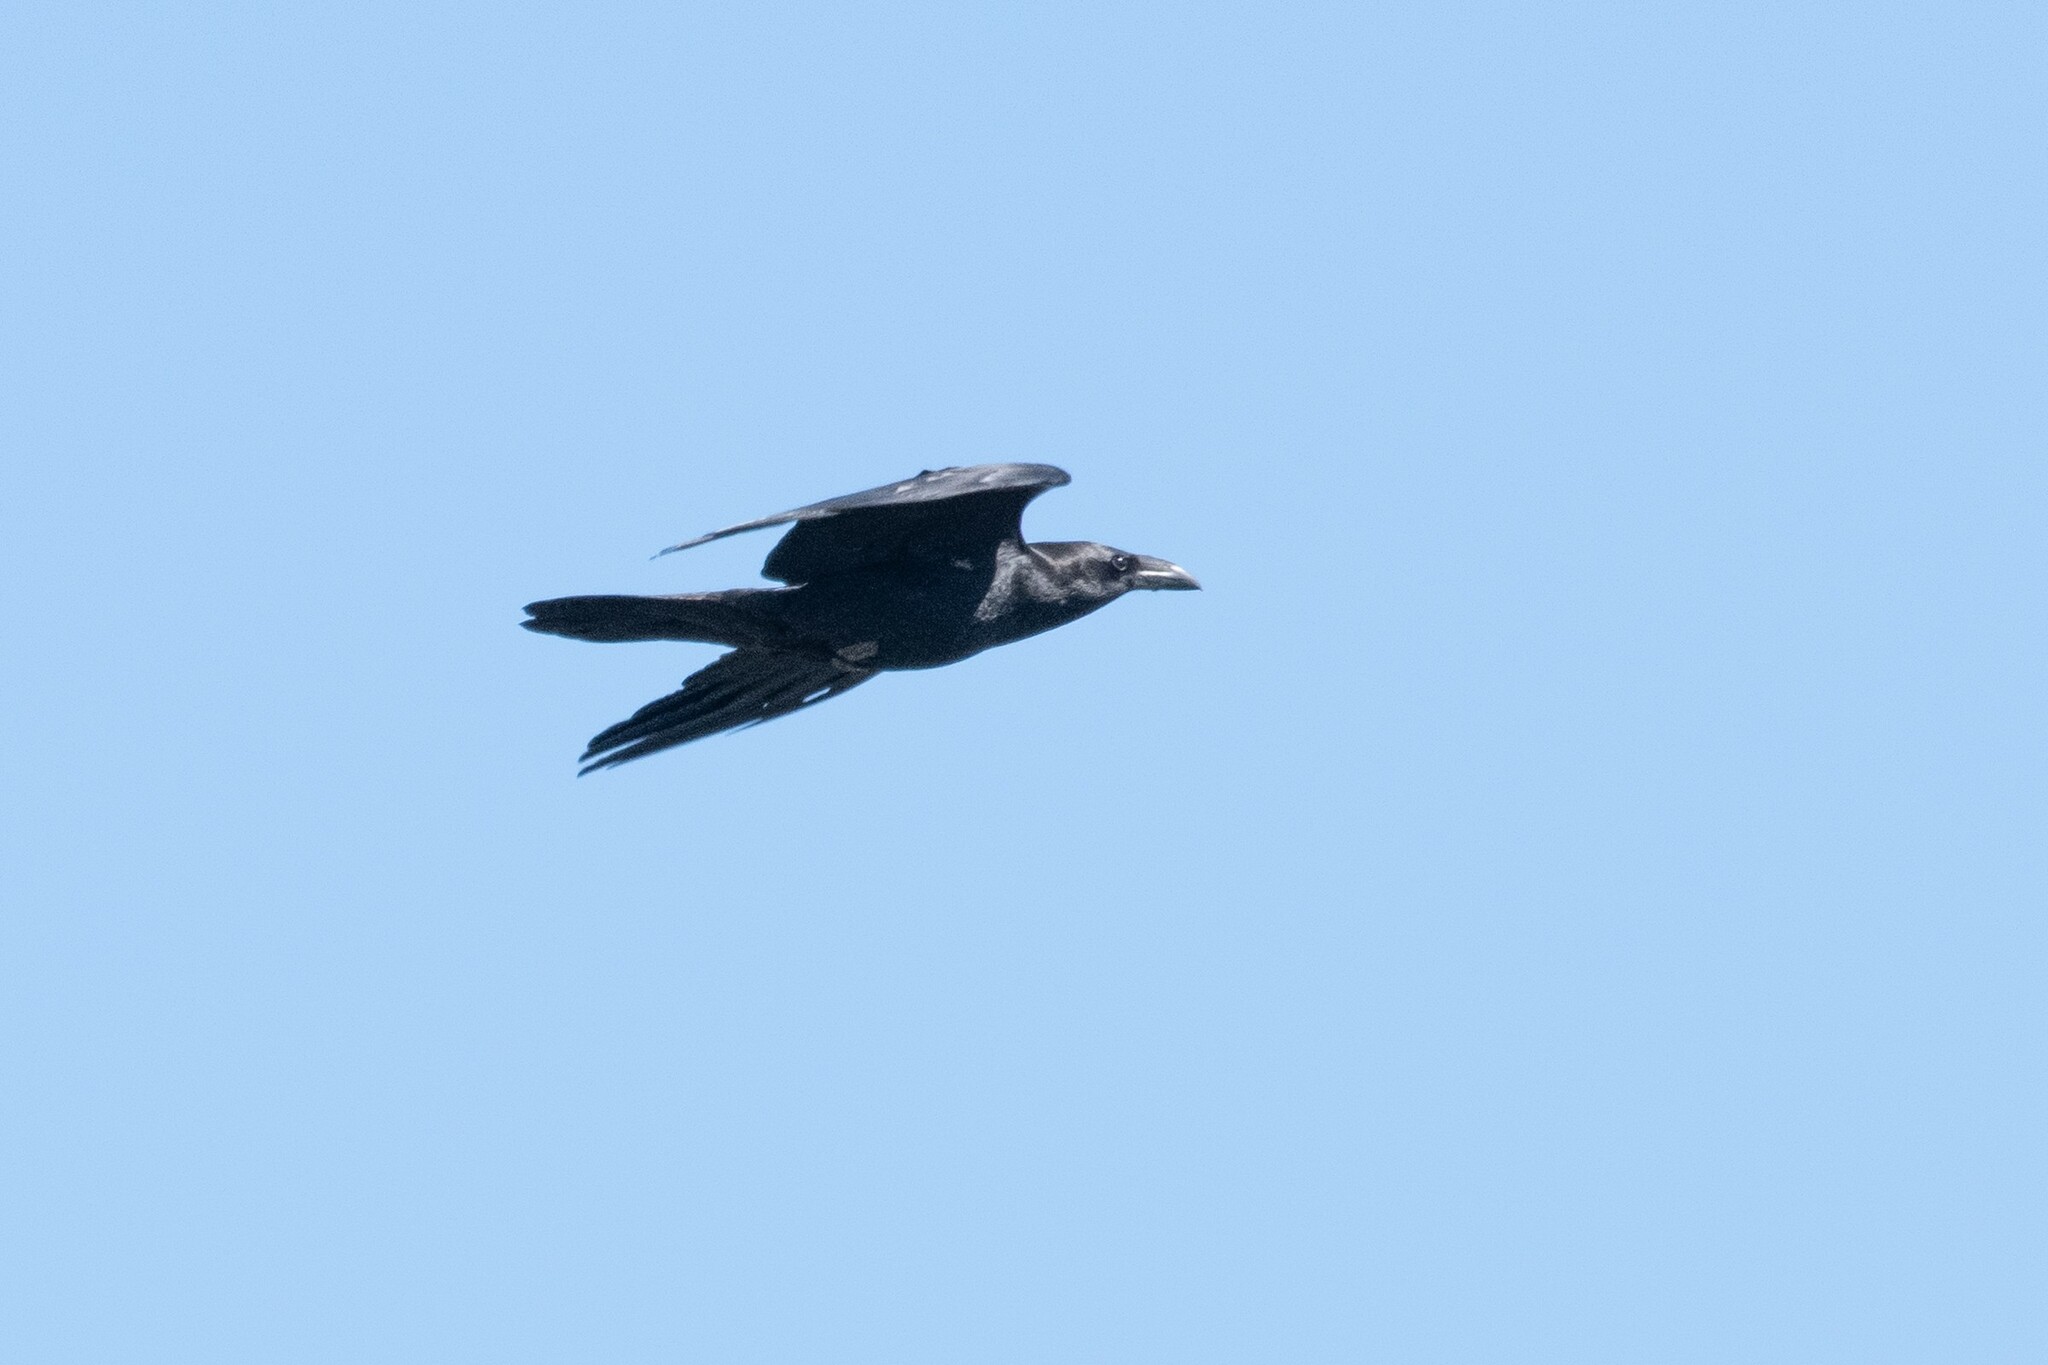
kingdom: Animalia
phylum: Chordata
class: Aves
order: Passeriformes
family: Corvidae
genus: Corvus
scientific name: Corvus cryptoleucus
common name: Chihuahuan raven
